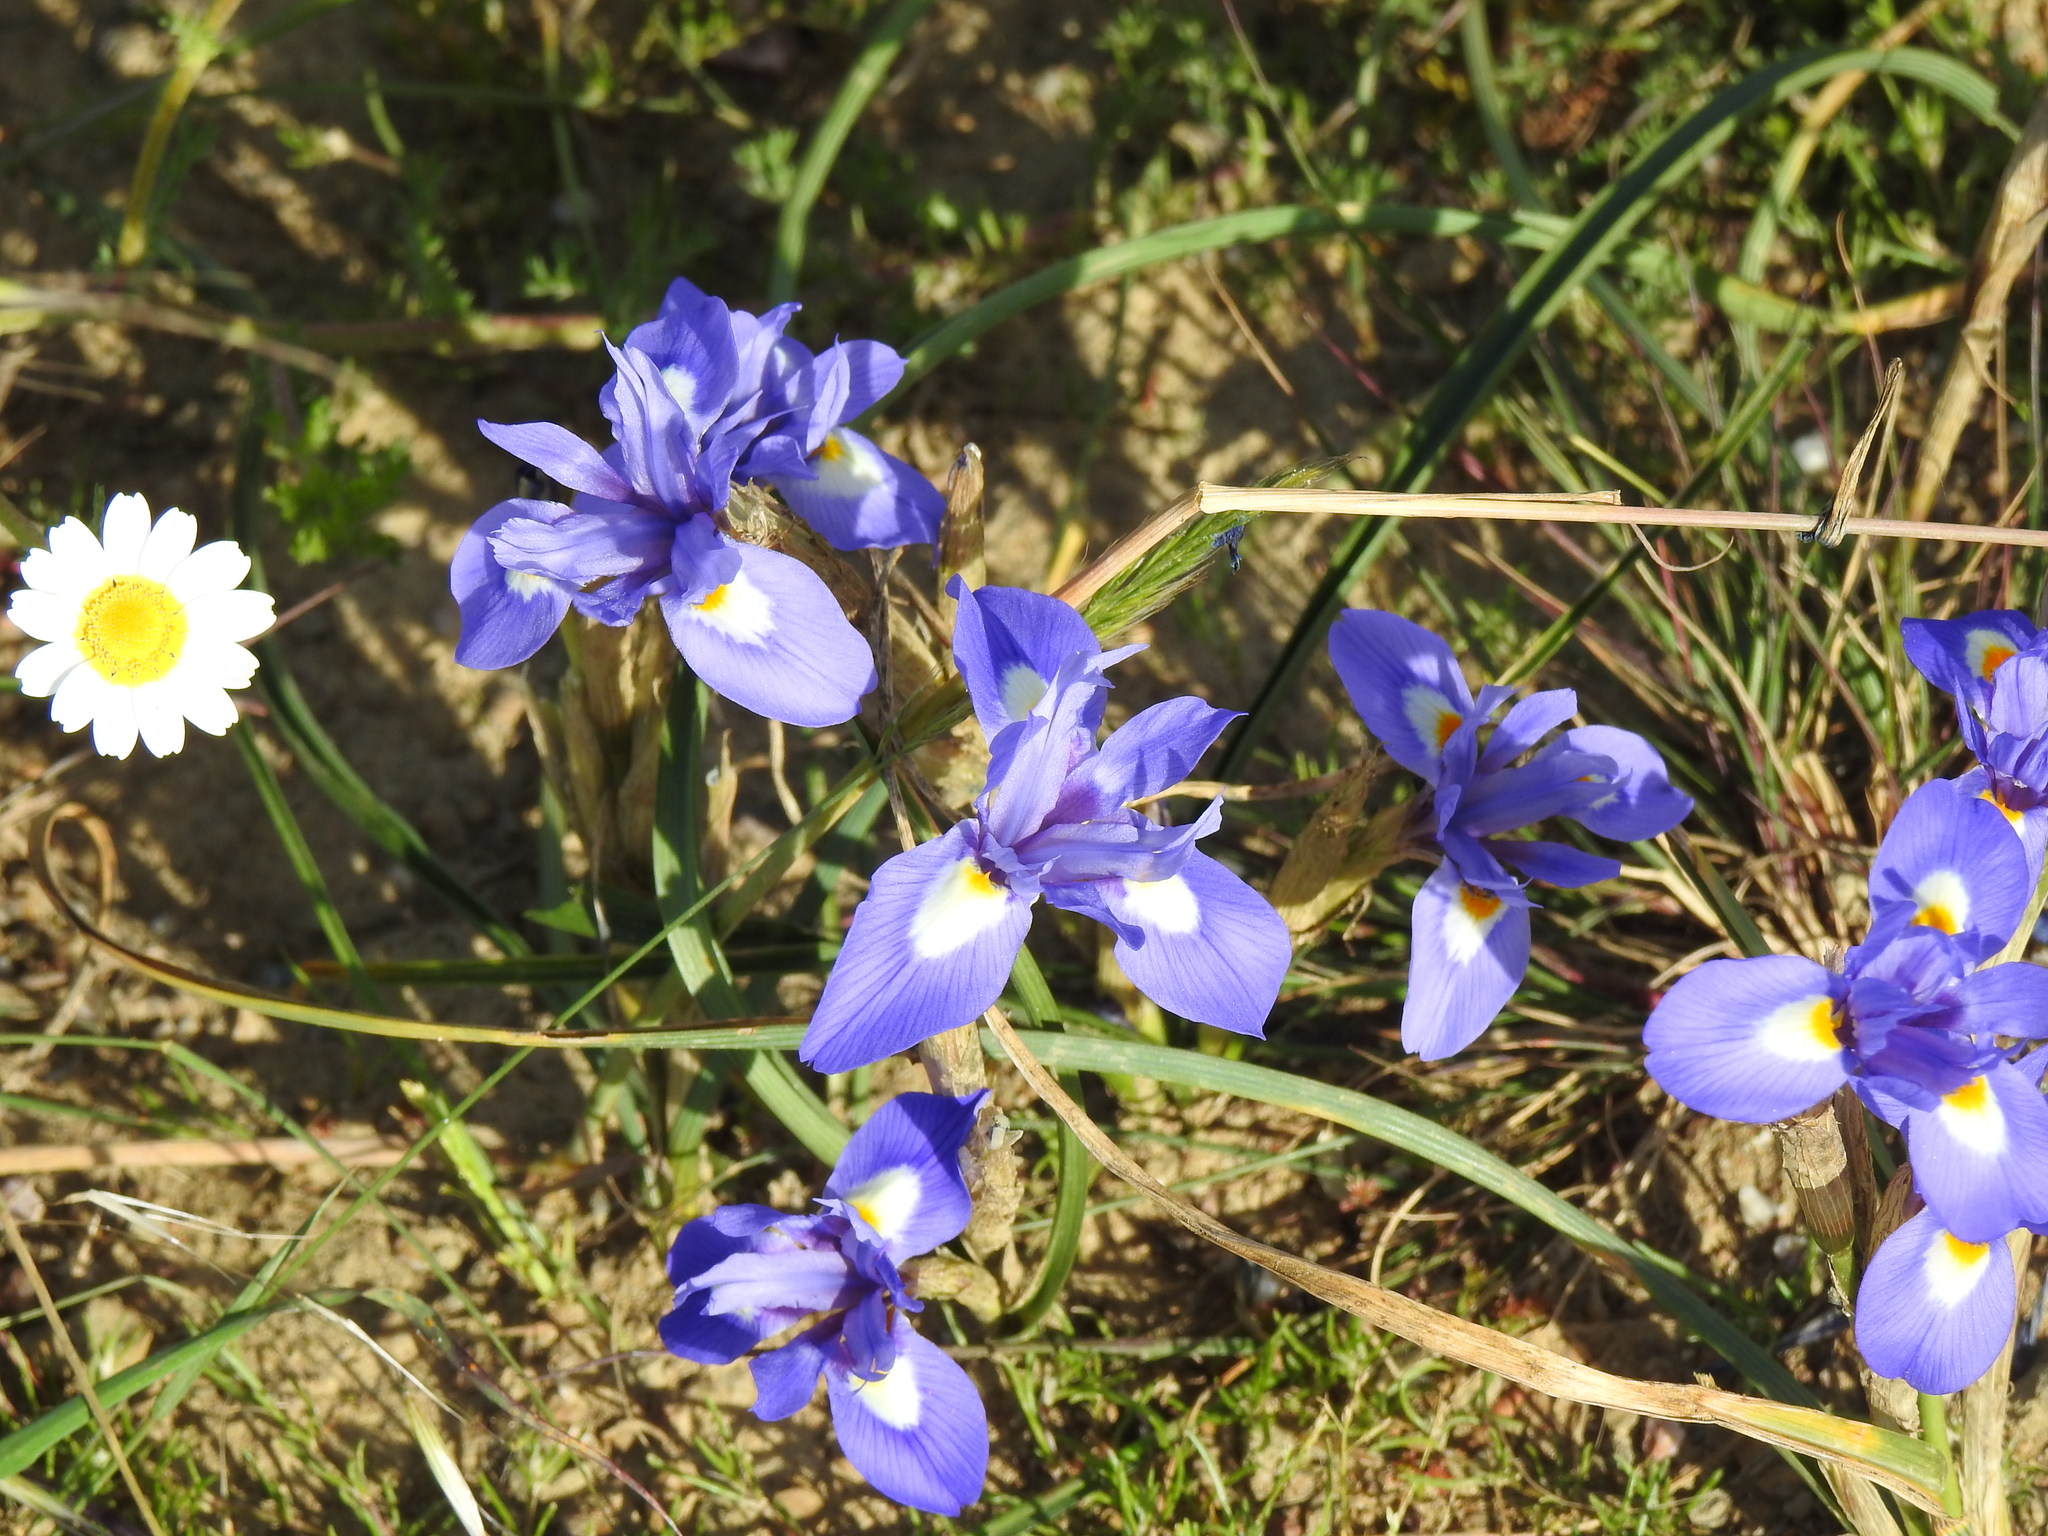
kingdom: Plantae
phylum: Tracheophyta
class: Liliopsida
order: Asparagales
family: Iridaceae
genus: Moraea
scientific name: Moraea sisyrinchium
